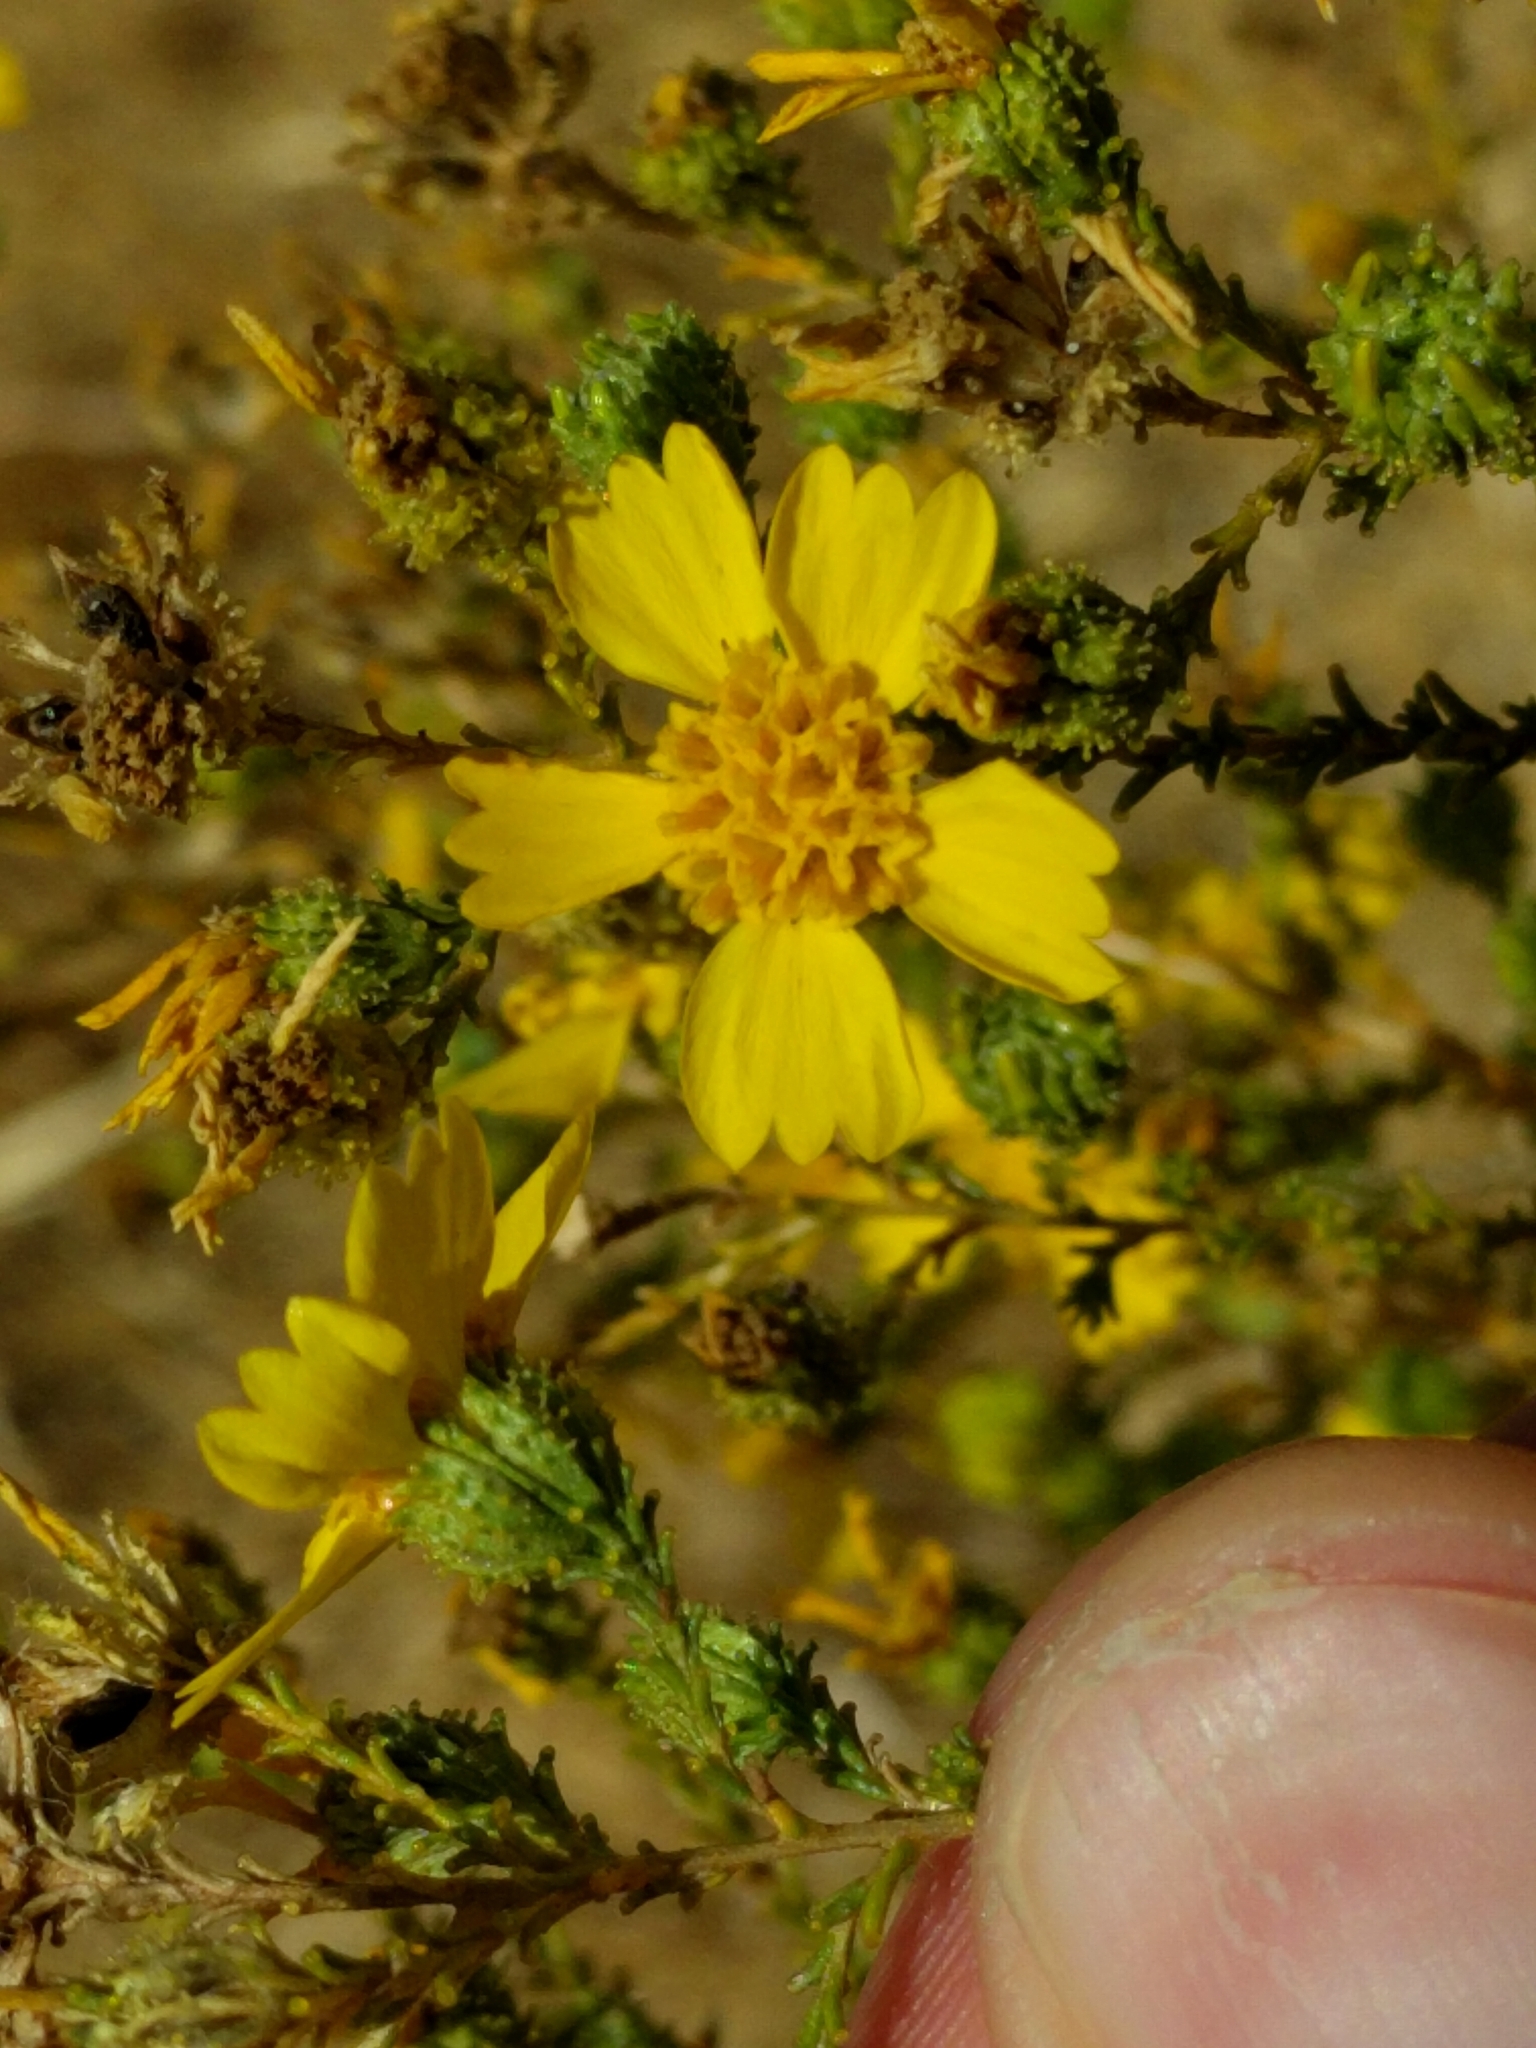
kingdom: Plantae
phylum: Tracheophyta
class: Magnoliopsida
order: Asterales
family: Asteraceae
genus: Holocarpha
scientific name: Holocarpha obconica
